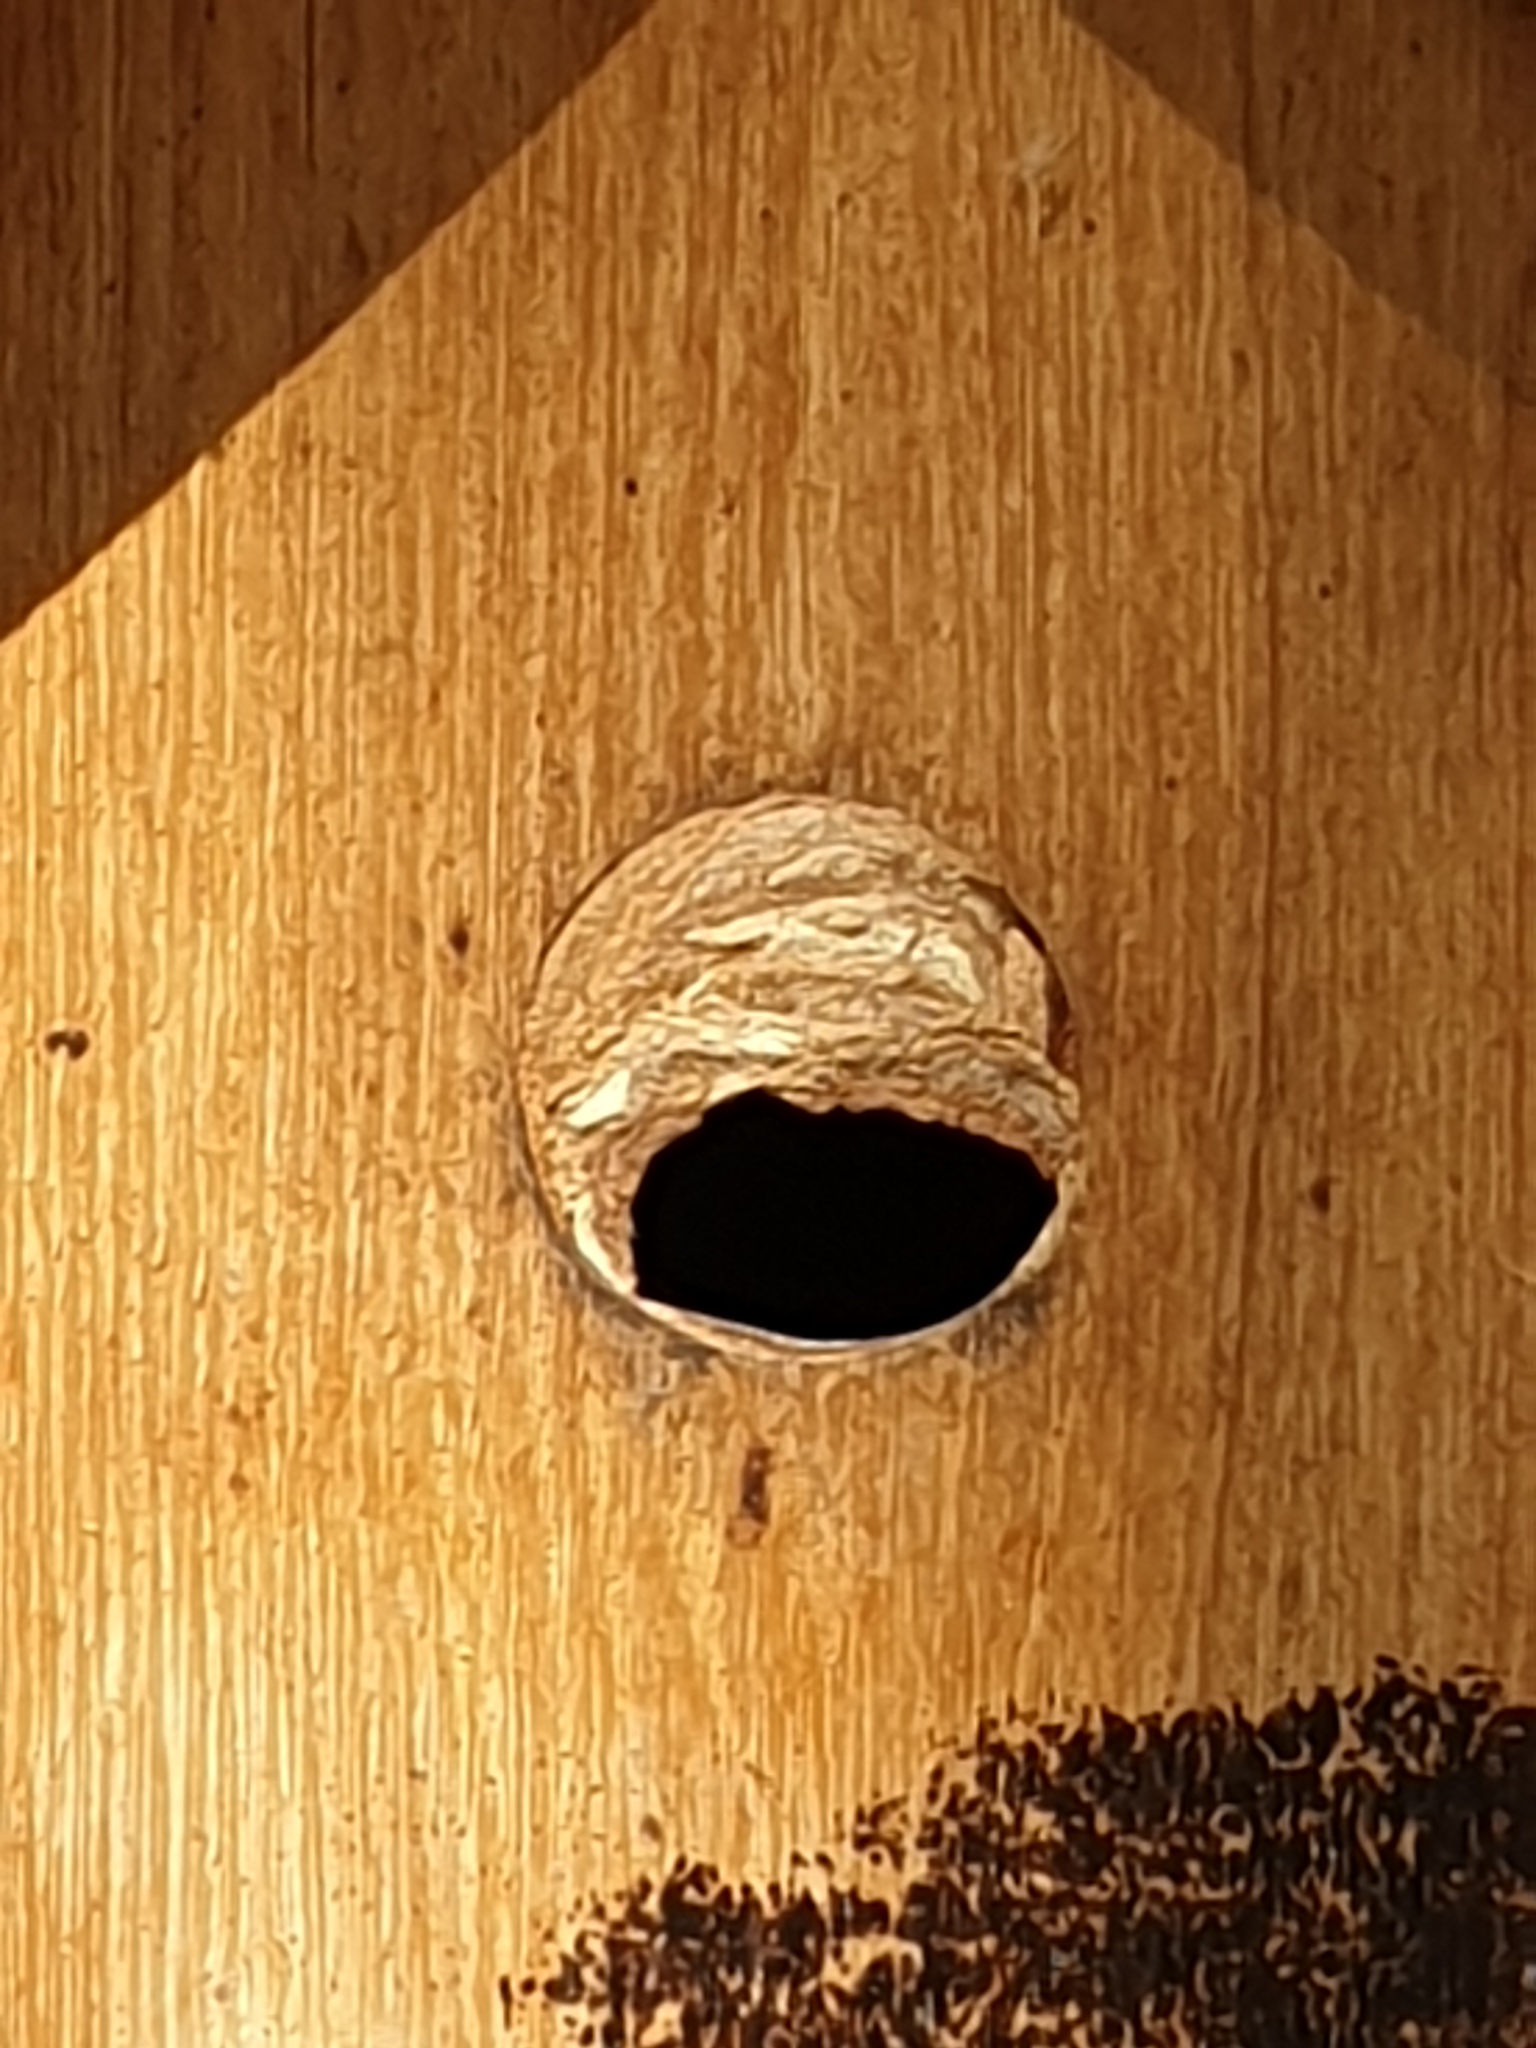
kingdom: Animalia
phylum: Arthropoda
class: Insecta
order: Hymenoptera
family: Vespidae
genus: Vespa
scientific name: Vespa crabro
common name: Hornet
